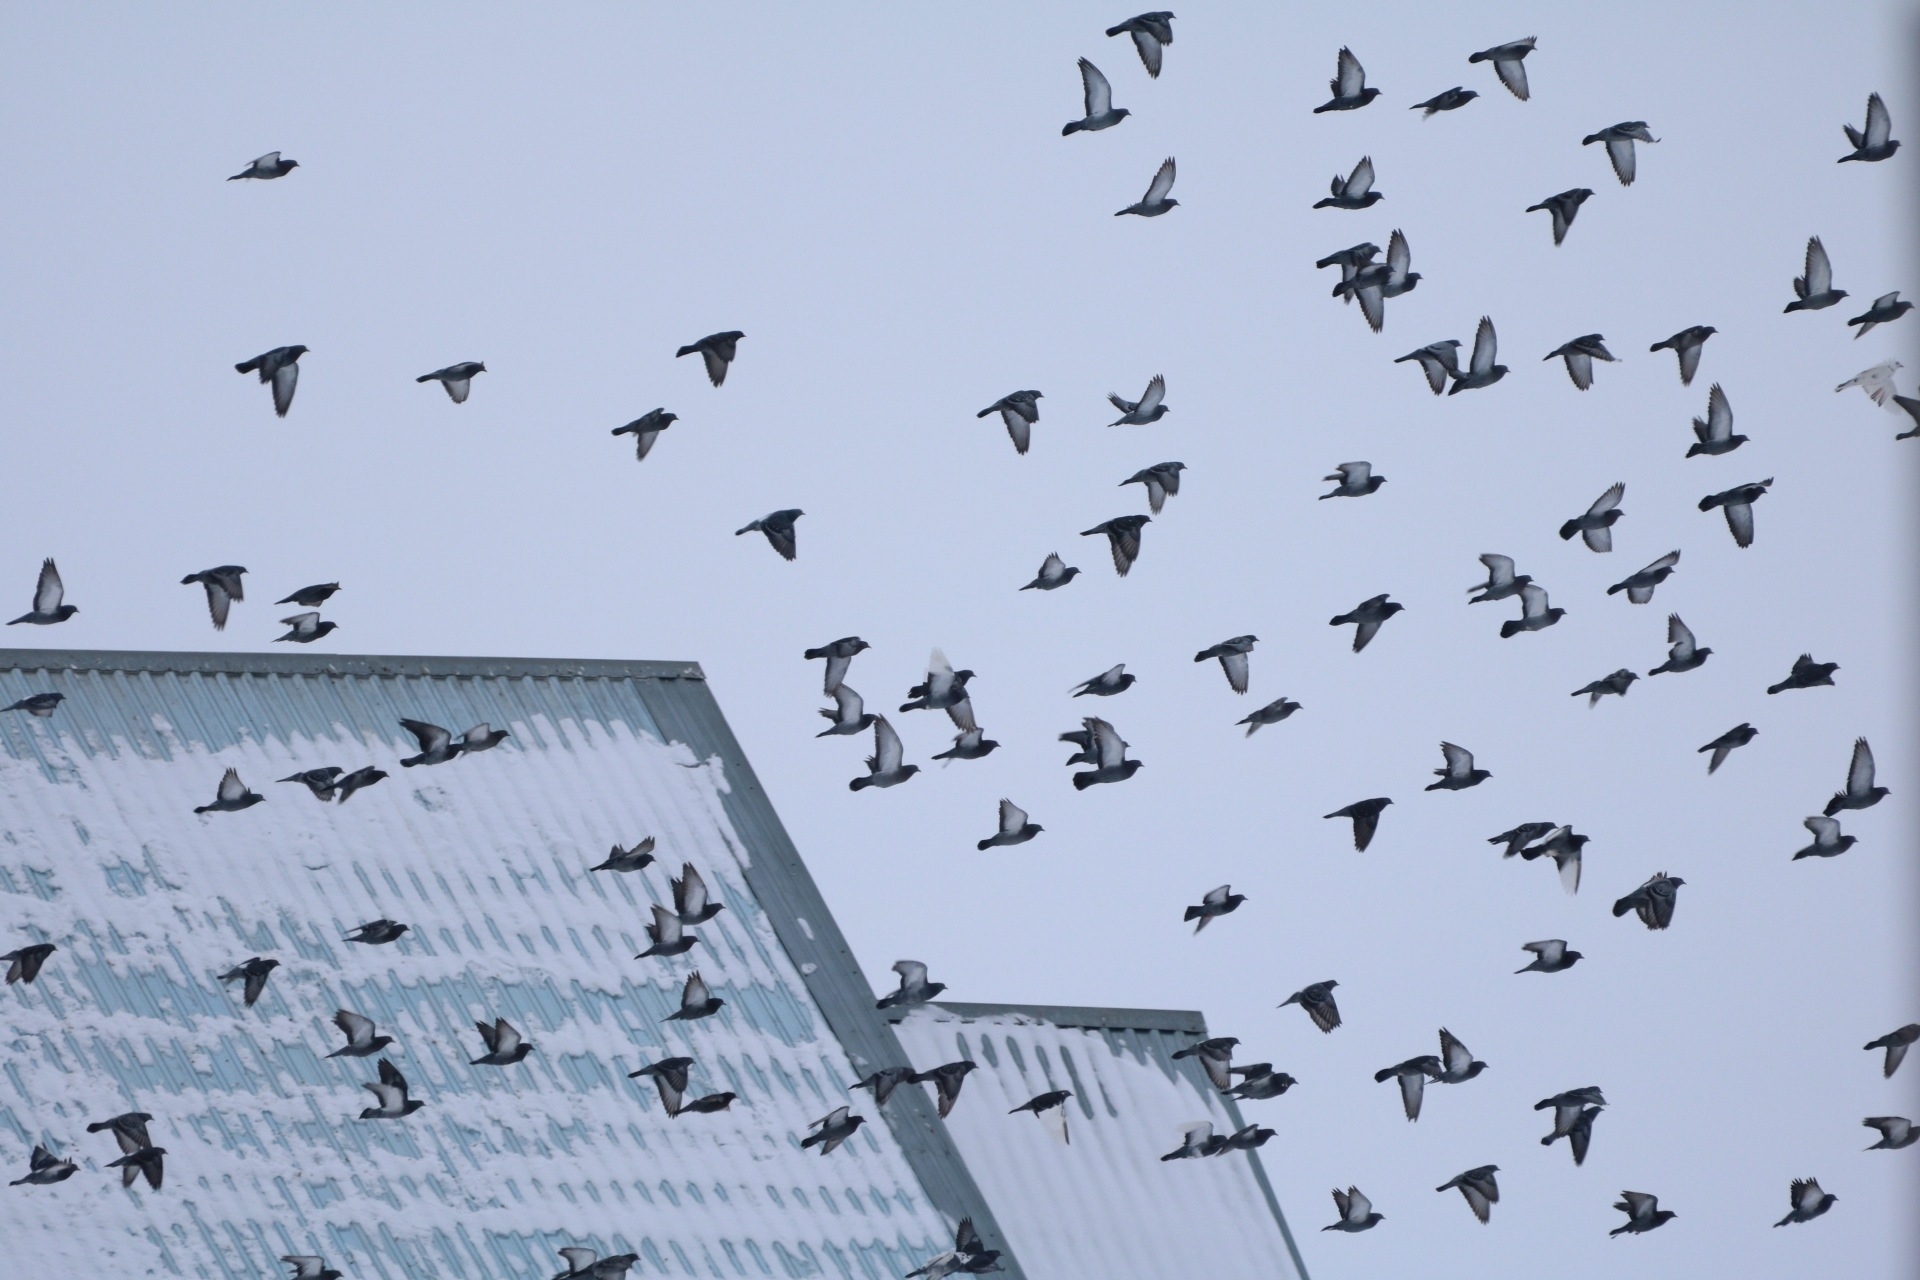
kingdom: Animalia
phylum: Chordata
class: Aves
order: Columbiformes
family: Columbidae
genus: Columba
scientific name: Columba livia
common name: Rock pigeon
